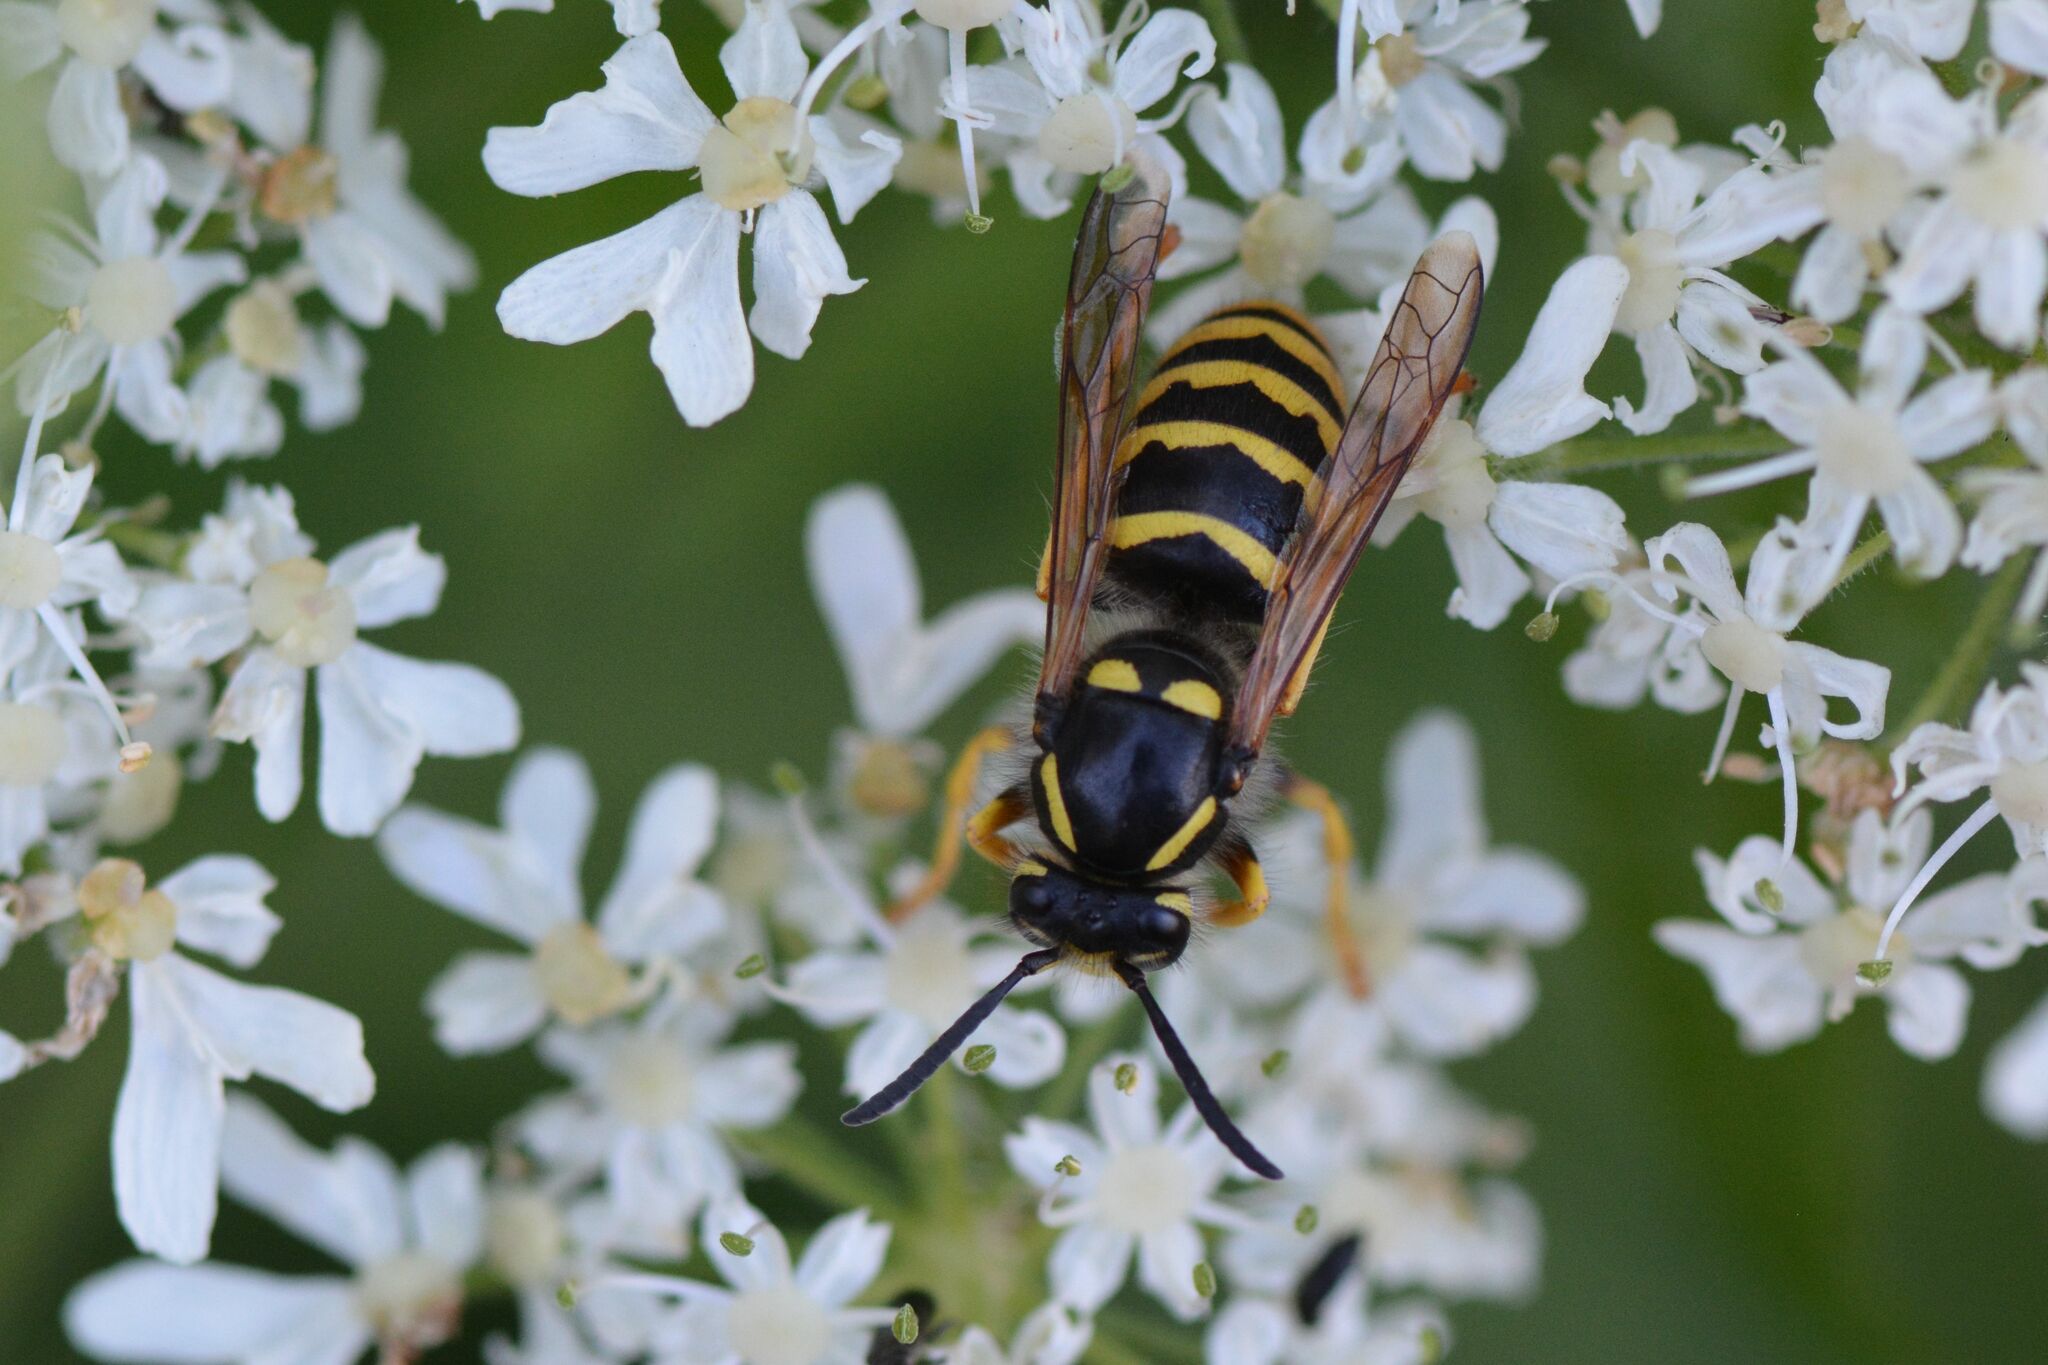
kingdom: Animalia
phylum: Arthropoda
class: Insecta
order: Hymenoptera
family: Vespidae
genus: Dolichovespula
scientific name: Dolichovespula sylvestris
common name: Tree wasp
